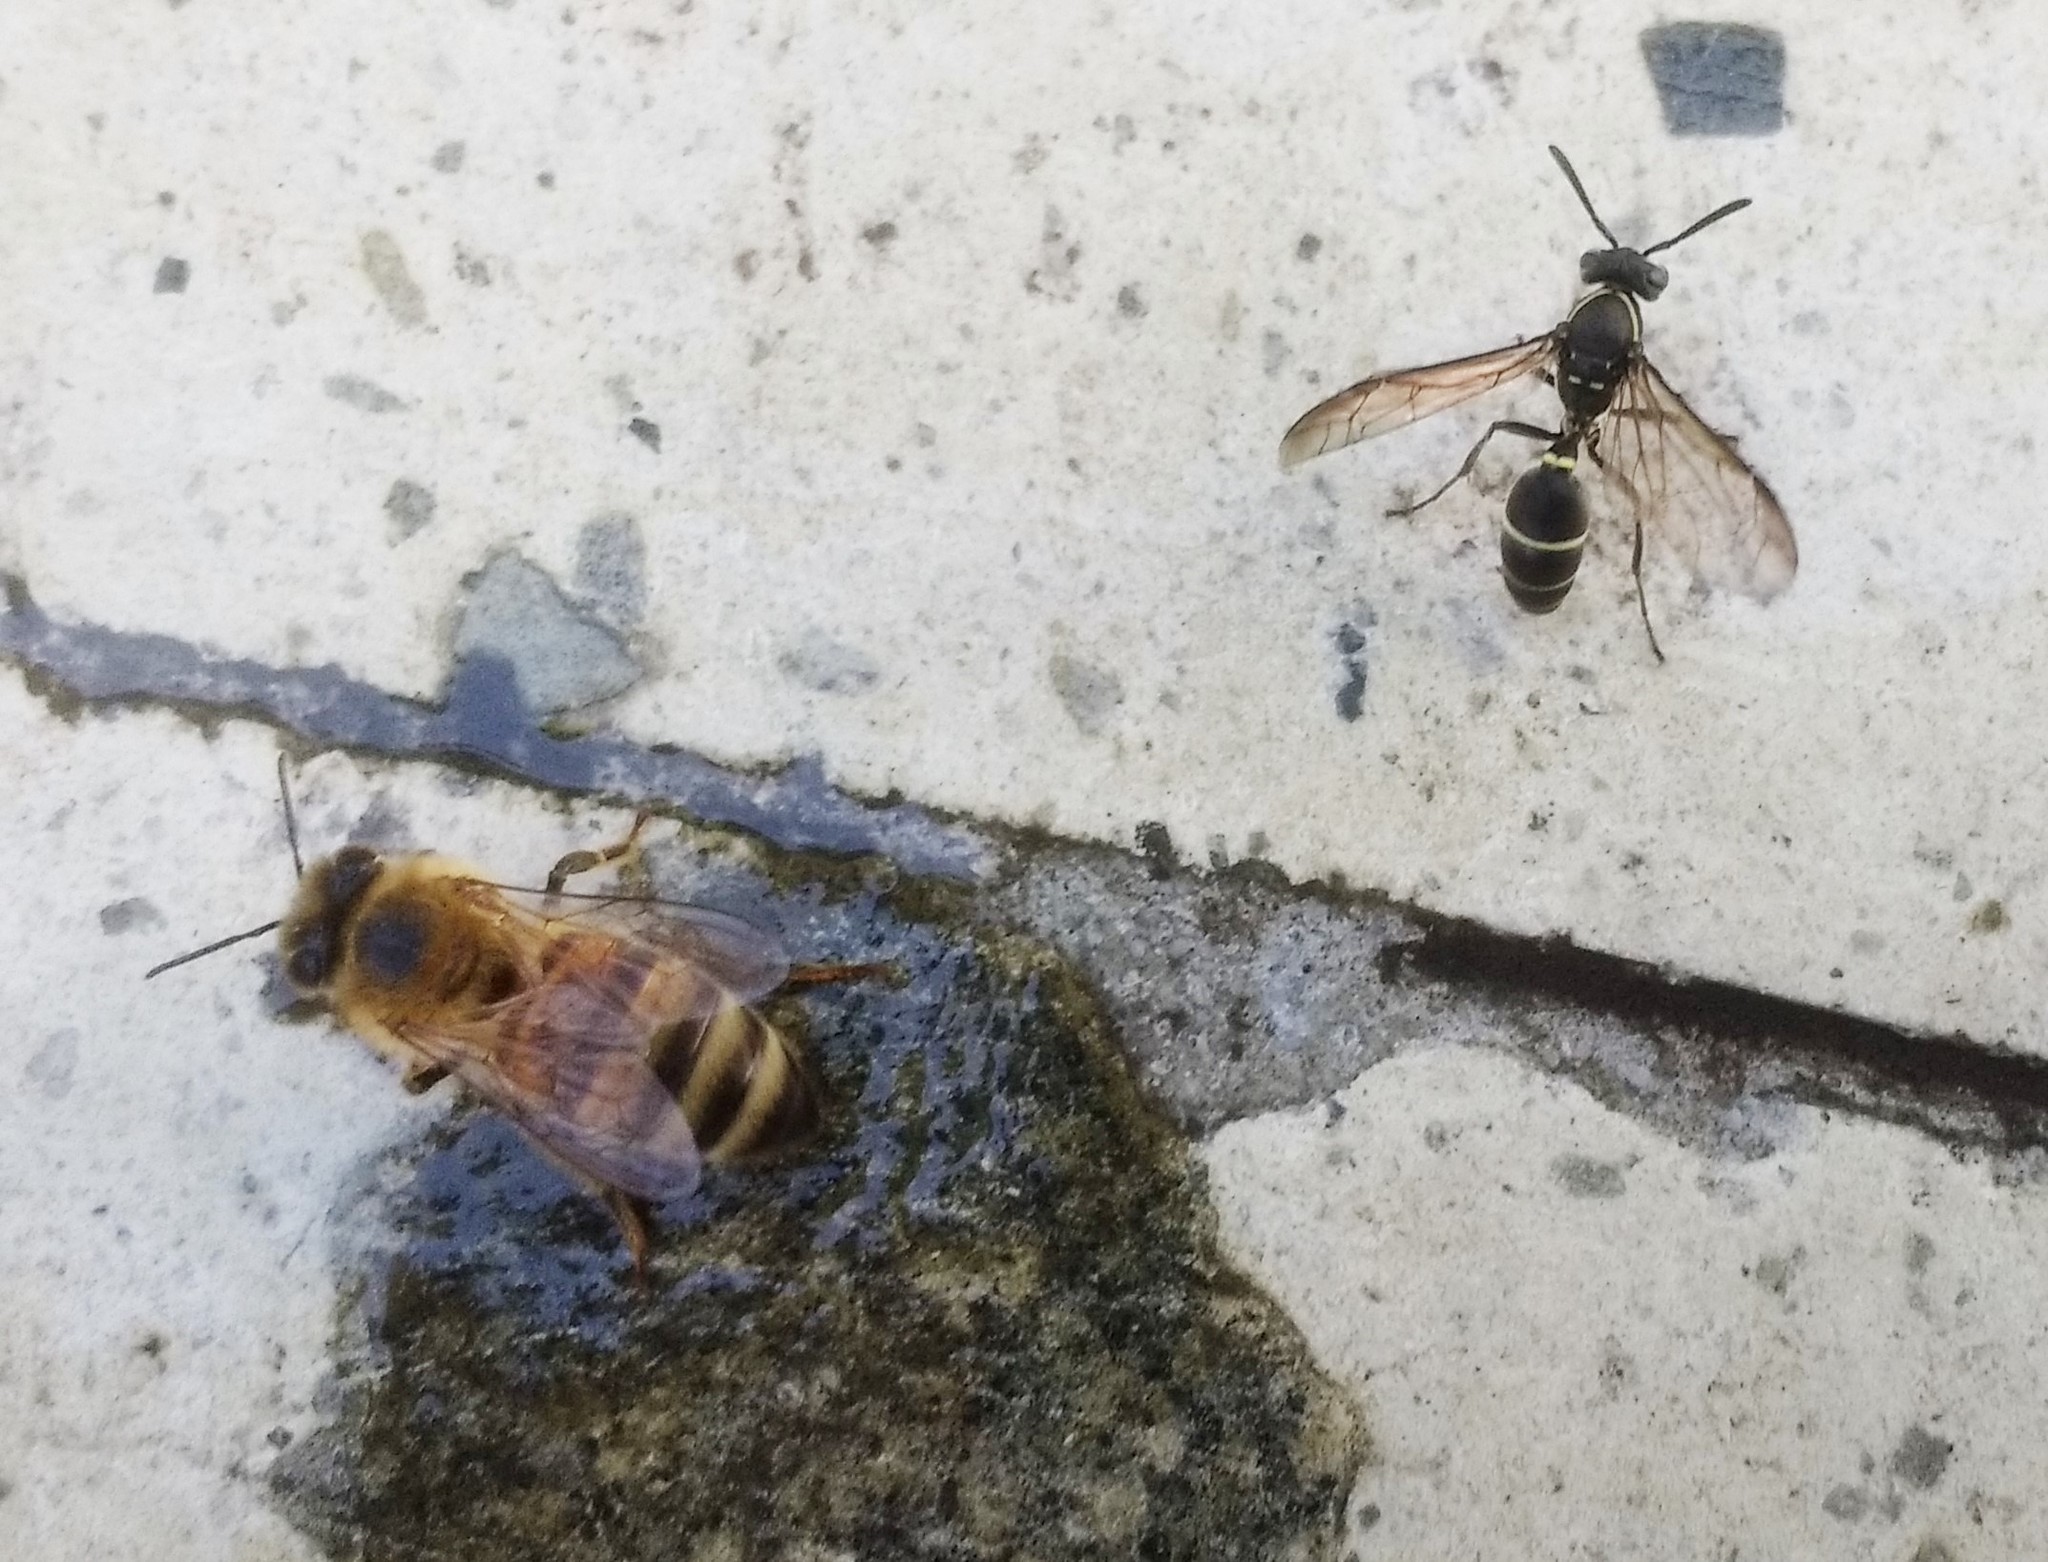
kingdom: Animalia
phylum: Arthropoda
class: Insecta
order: Hymenoptera
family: Eumenidae
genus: Polybia
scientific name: Polybia plebeja
